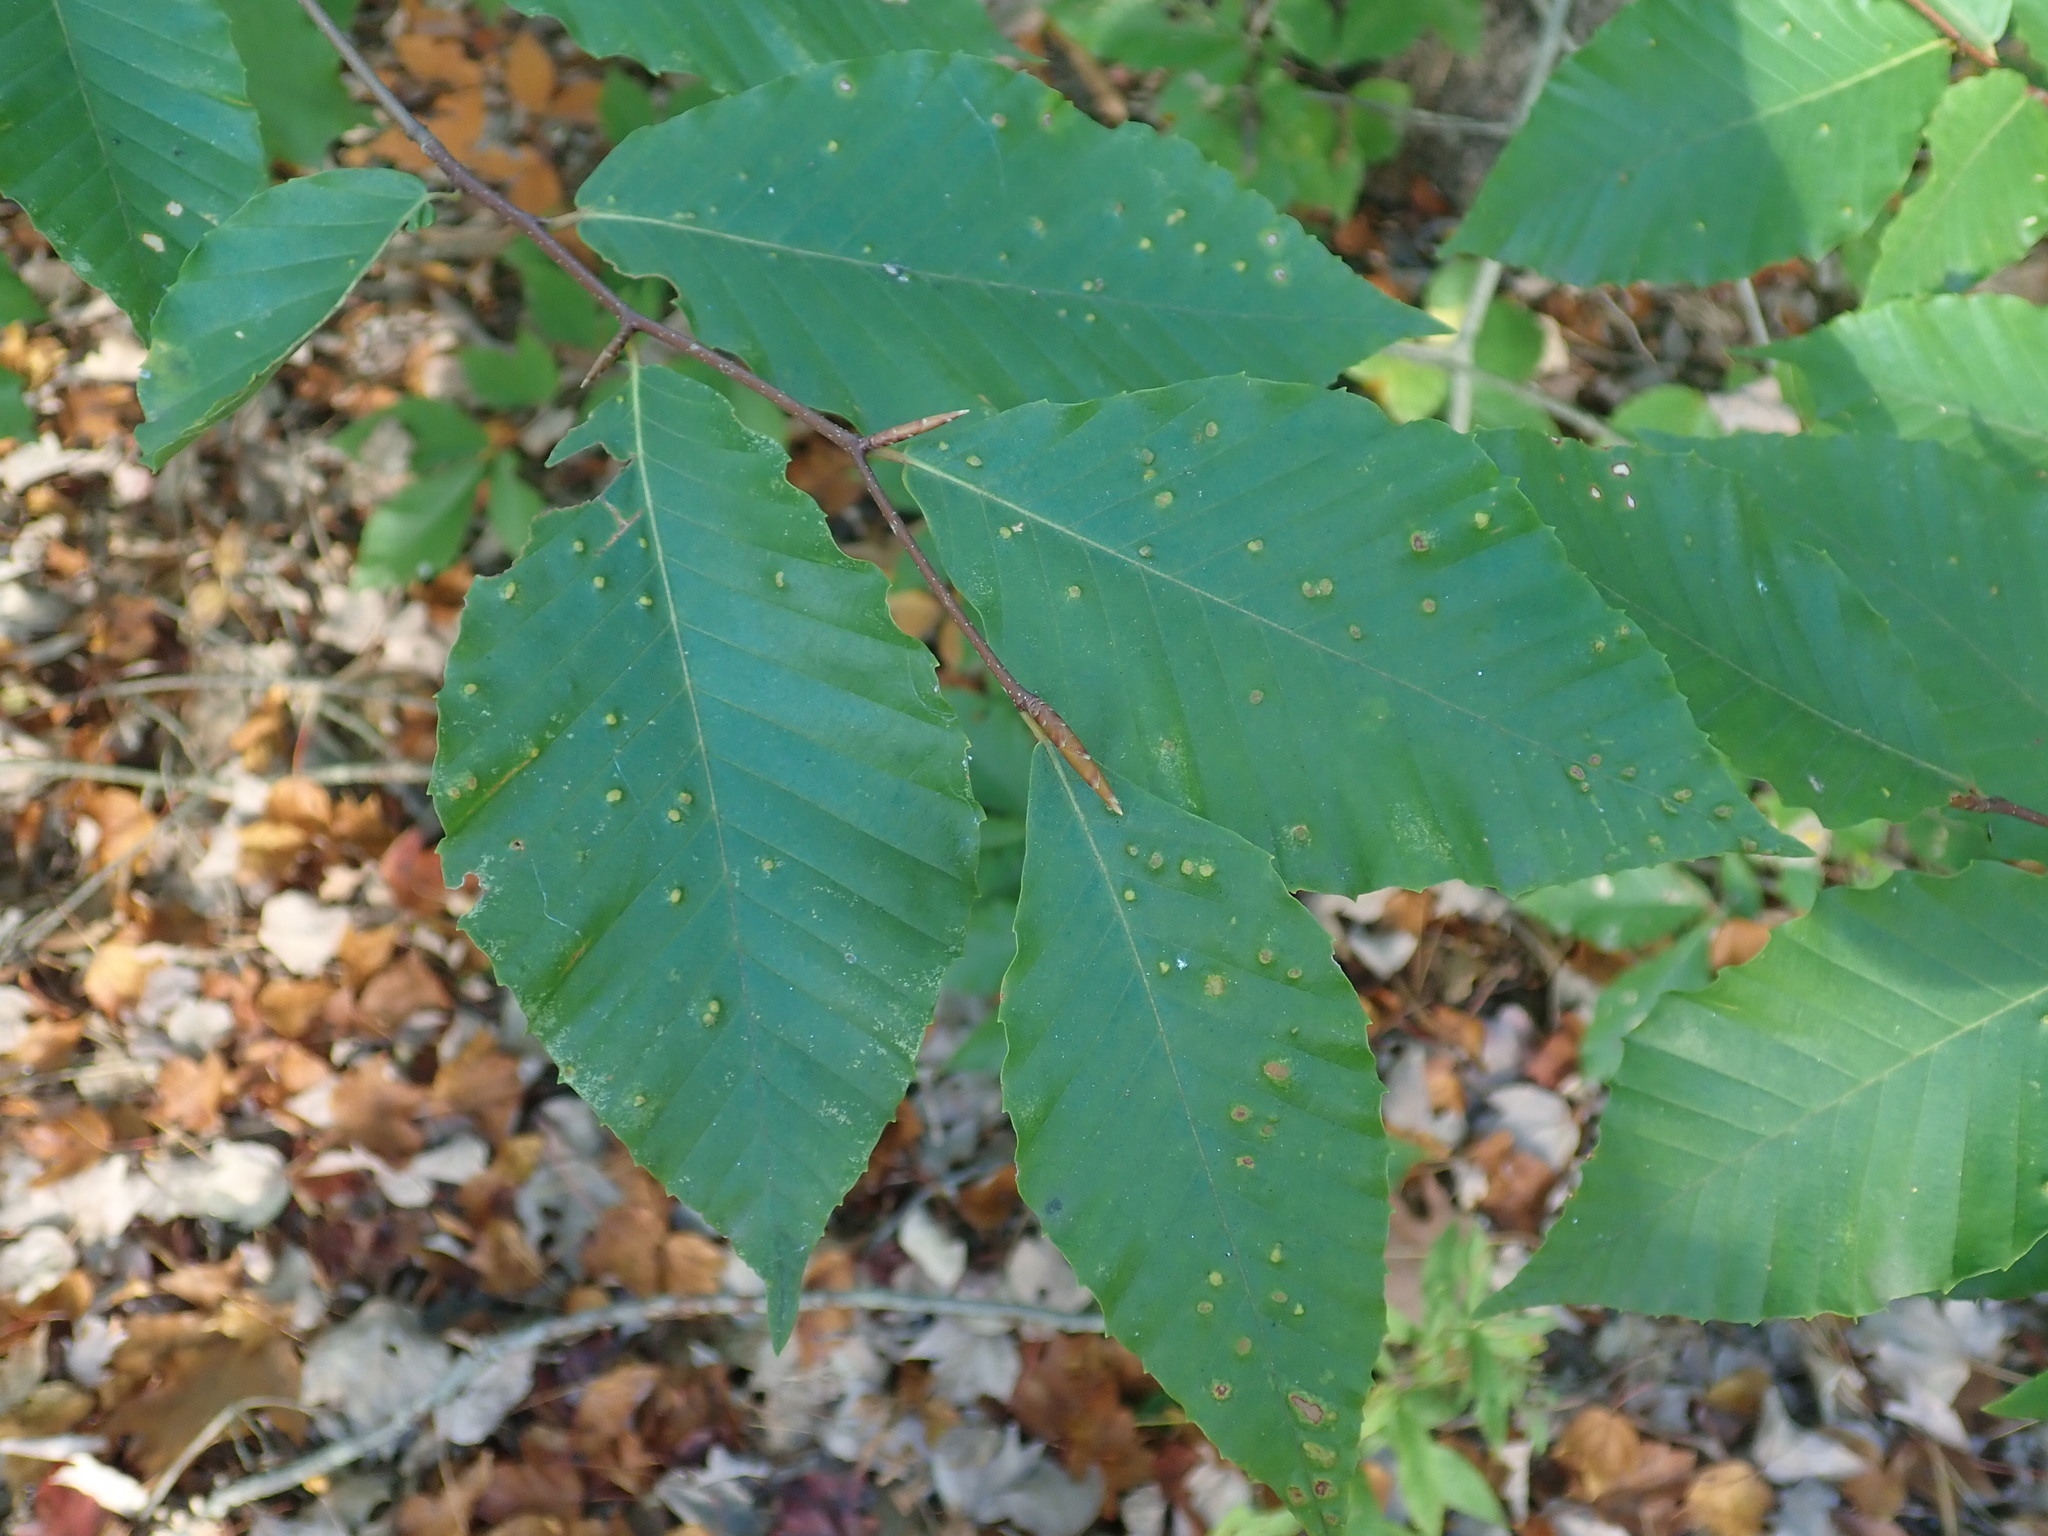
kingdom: Plantae
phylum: Tracheophyta
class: Magnoliopsida
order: Fagales
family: Fagaceae
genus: Fagus
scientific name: Fagus grandifolia
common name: American beech
